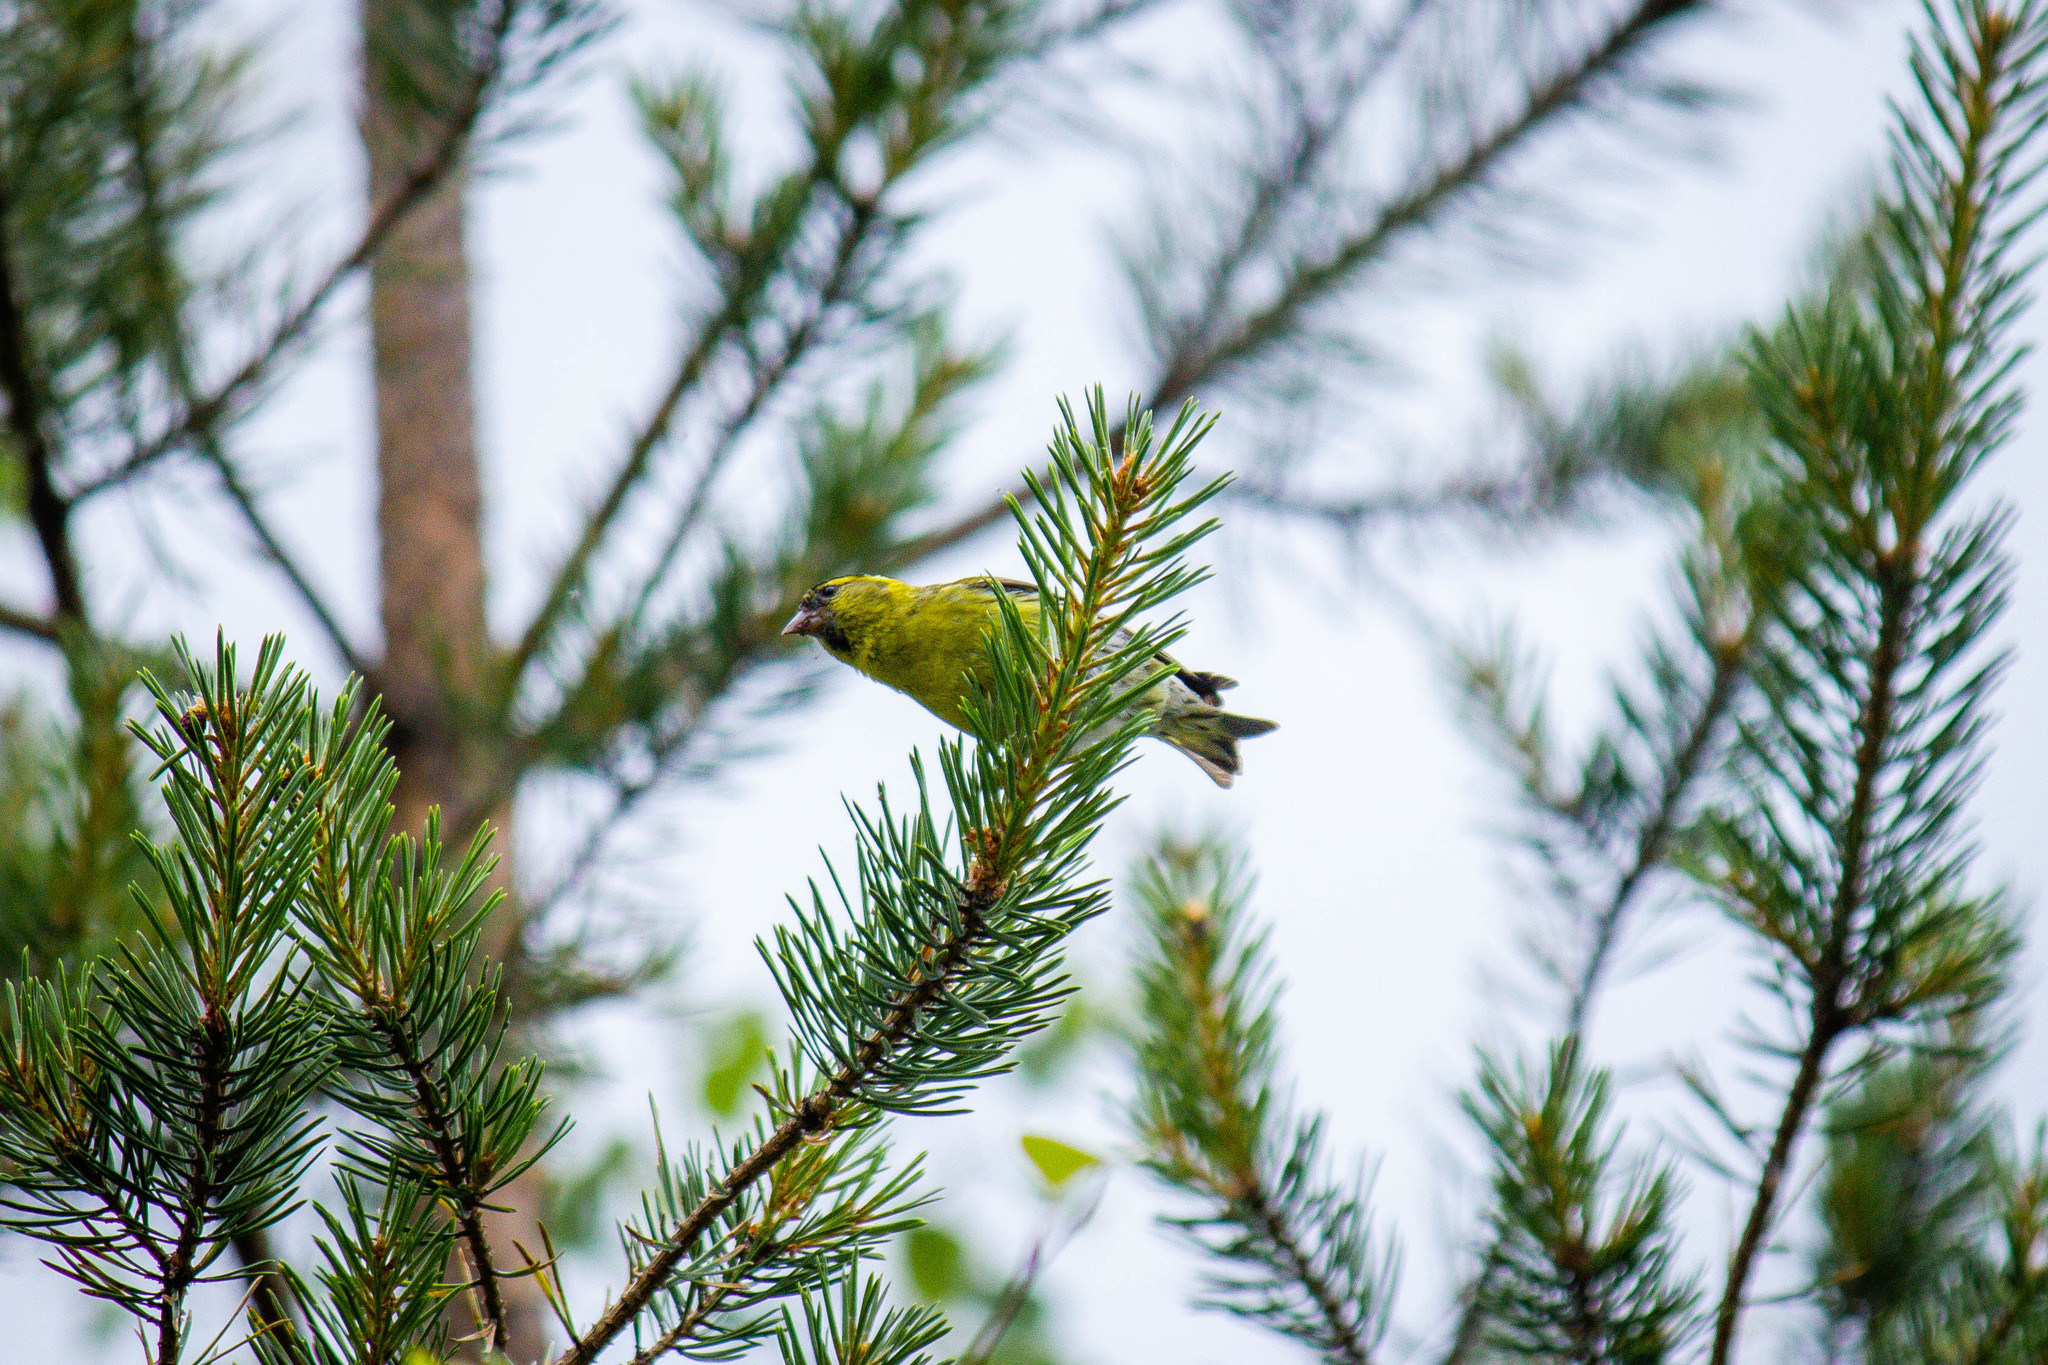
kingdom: Animalia
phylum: Chordata
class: Aves
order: Passeriformes
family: Fringillidae
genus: Spinus
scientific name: Spinus spinus
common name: Eurasian siskin
